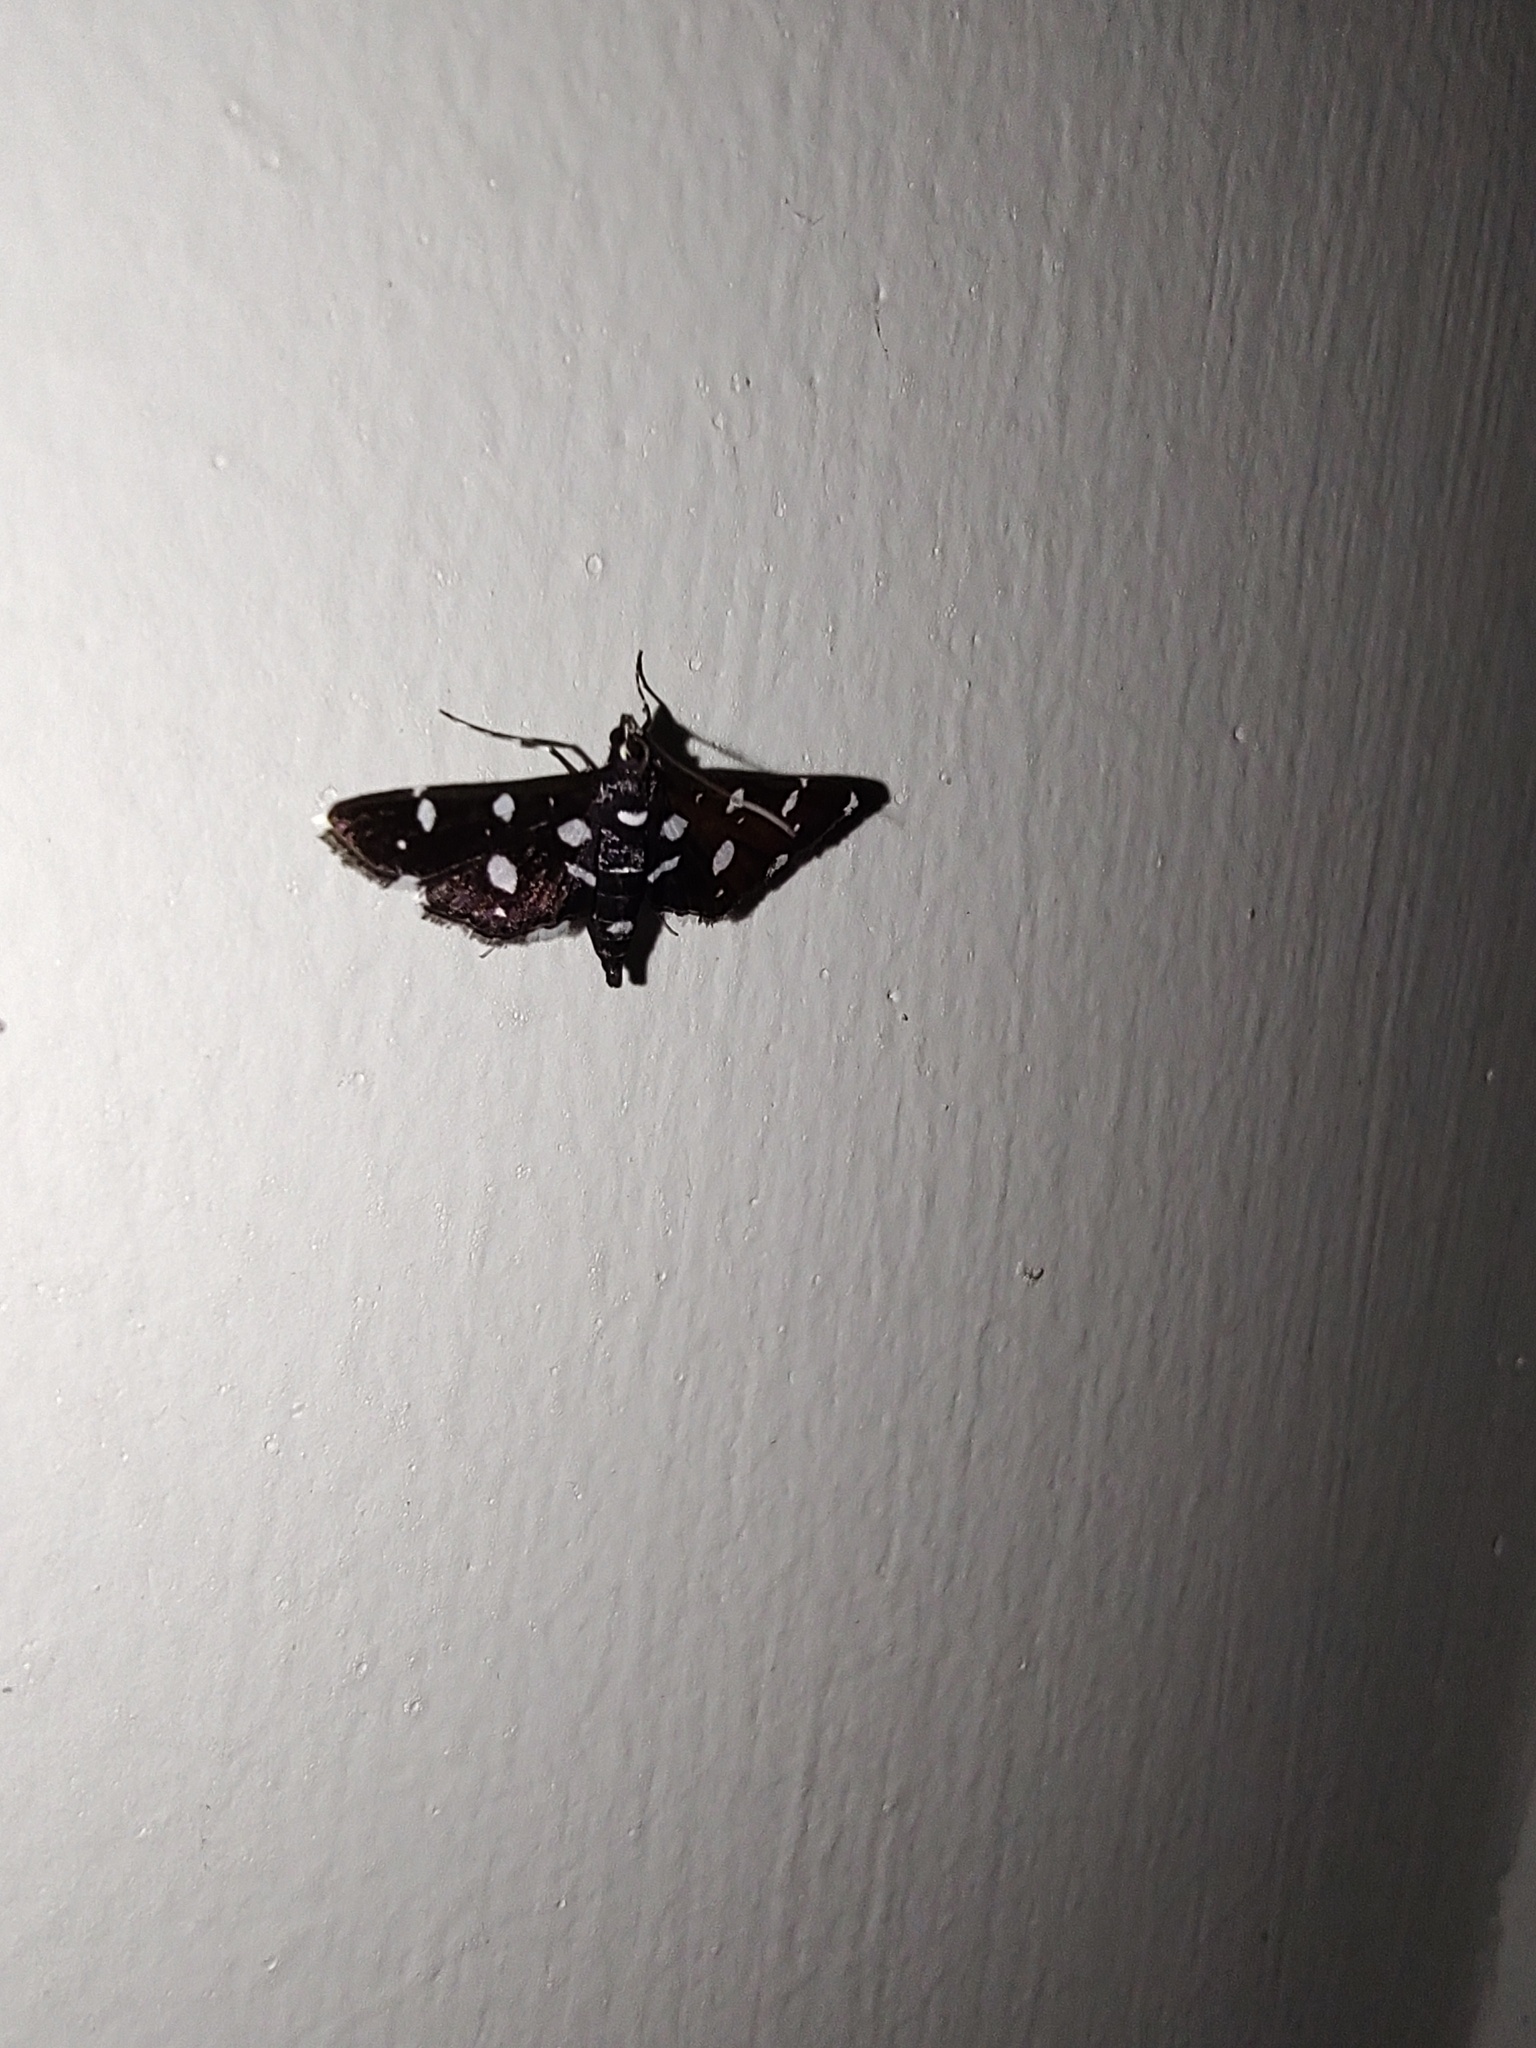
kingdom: Animalia
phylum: Arthropoda
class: Insecta
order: Lepidoptera
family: Crambidae
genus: Bocchoris
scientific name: Bocchoris inspersalis
